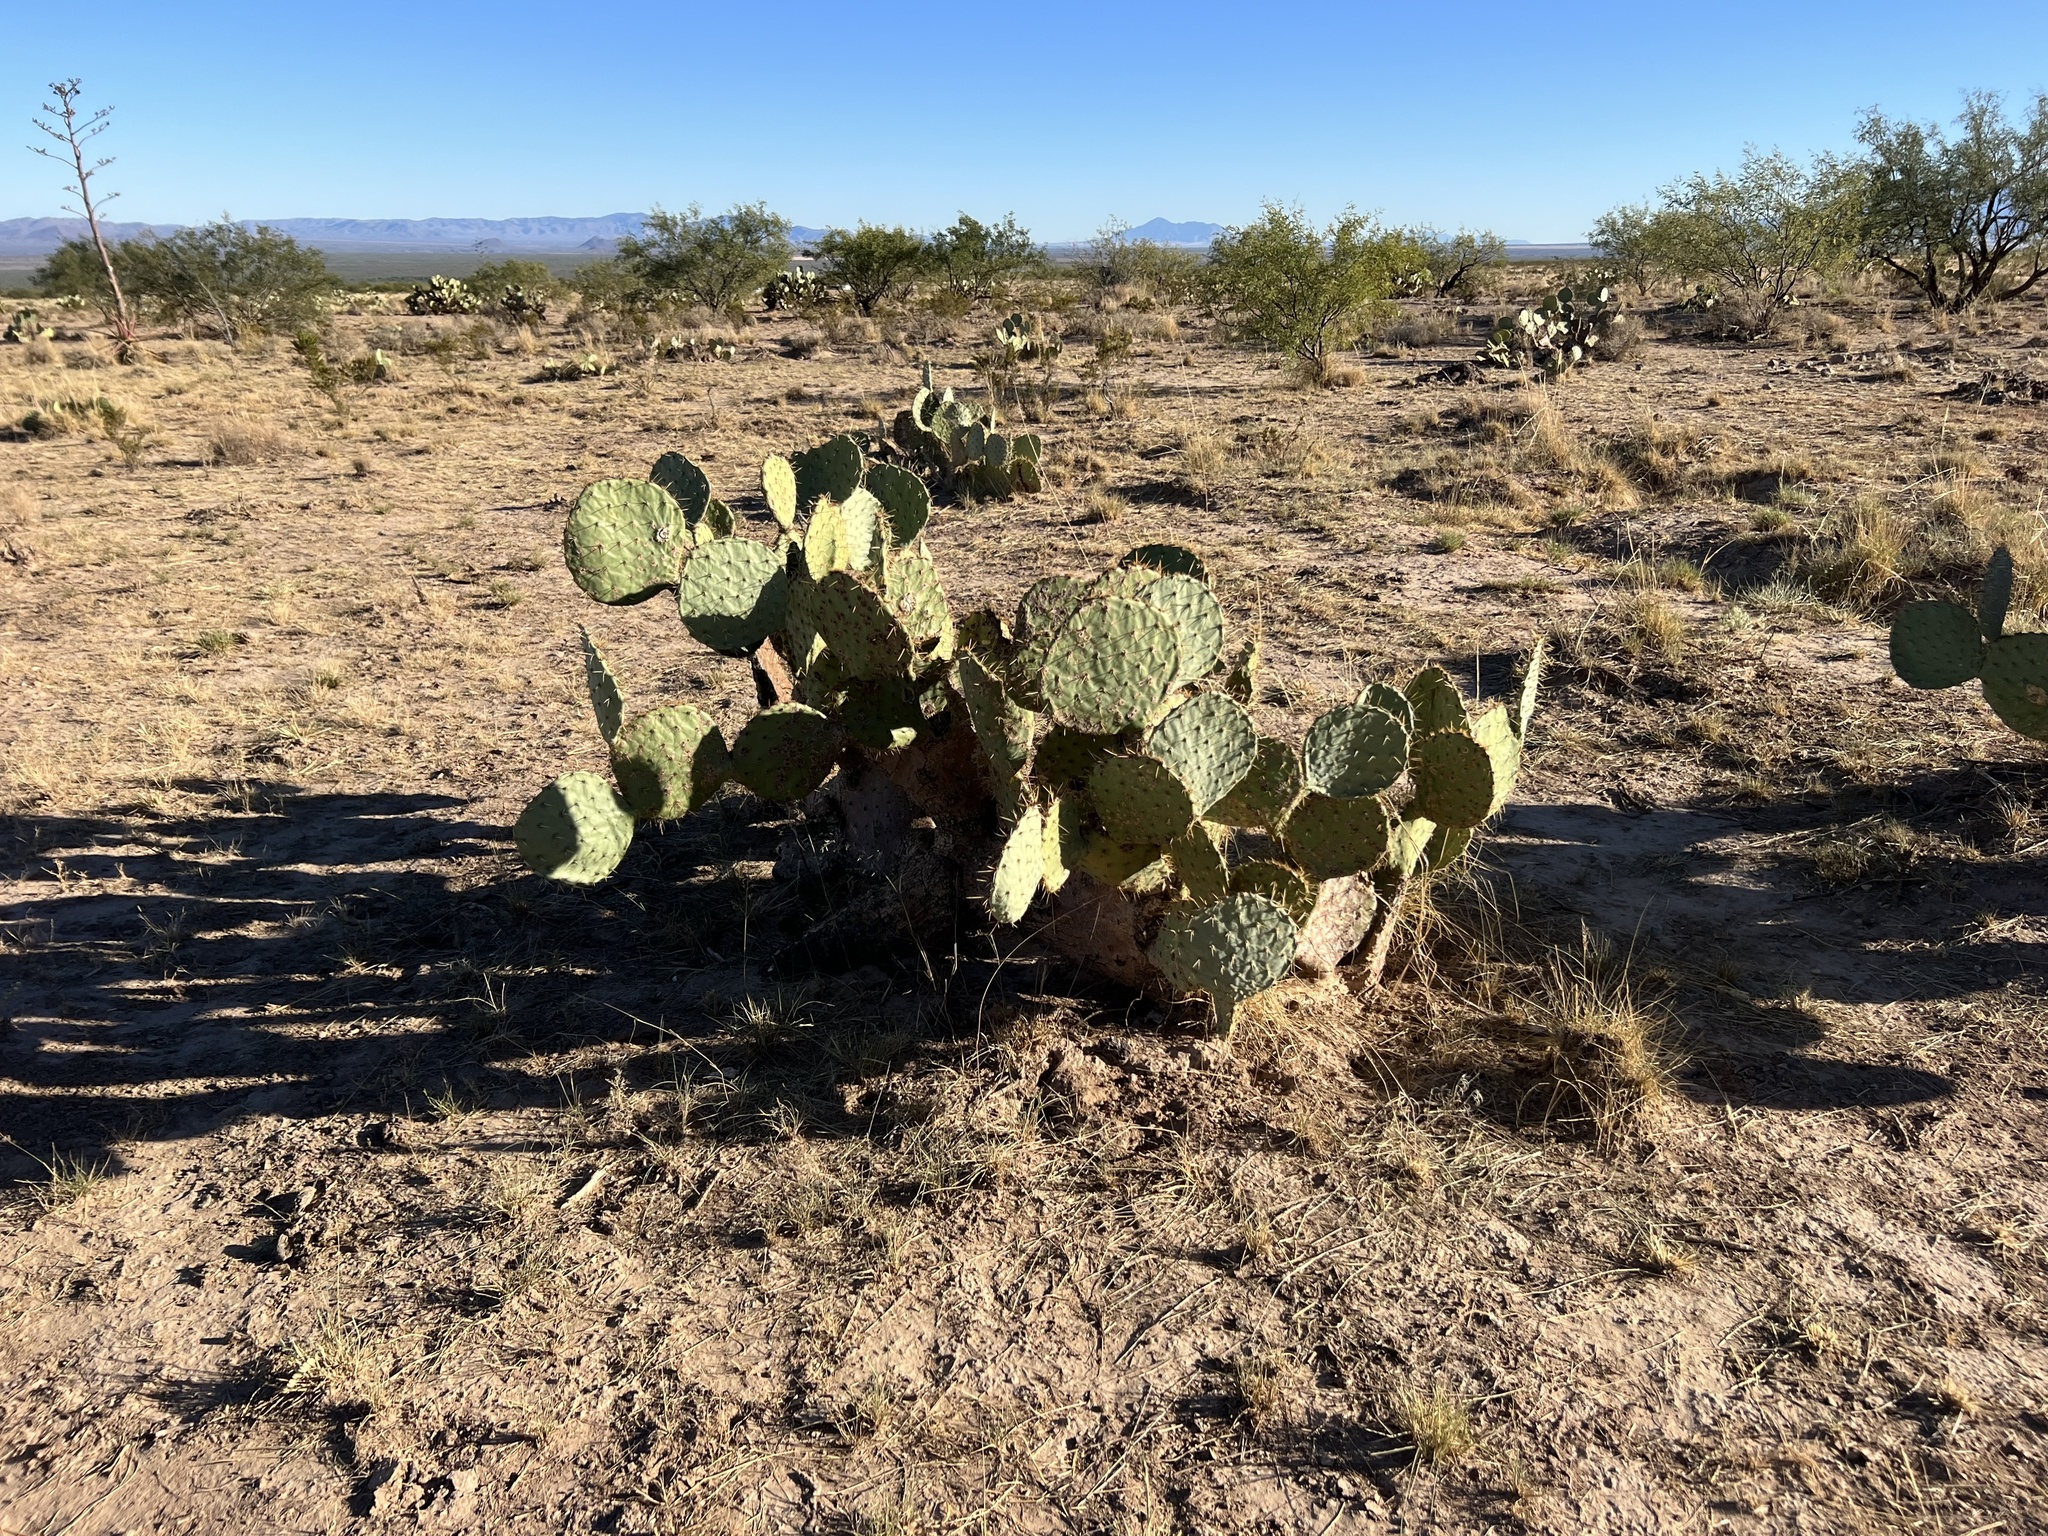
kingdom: Plantae
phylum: Tracheophyta
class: Magnoliopsida
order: Caryophyllales
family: Cactaceae
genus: Opuntia
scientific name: Opuntia engelmannii
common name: Cactus-apple
